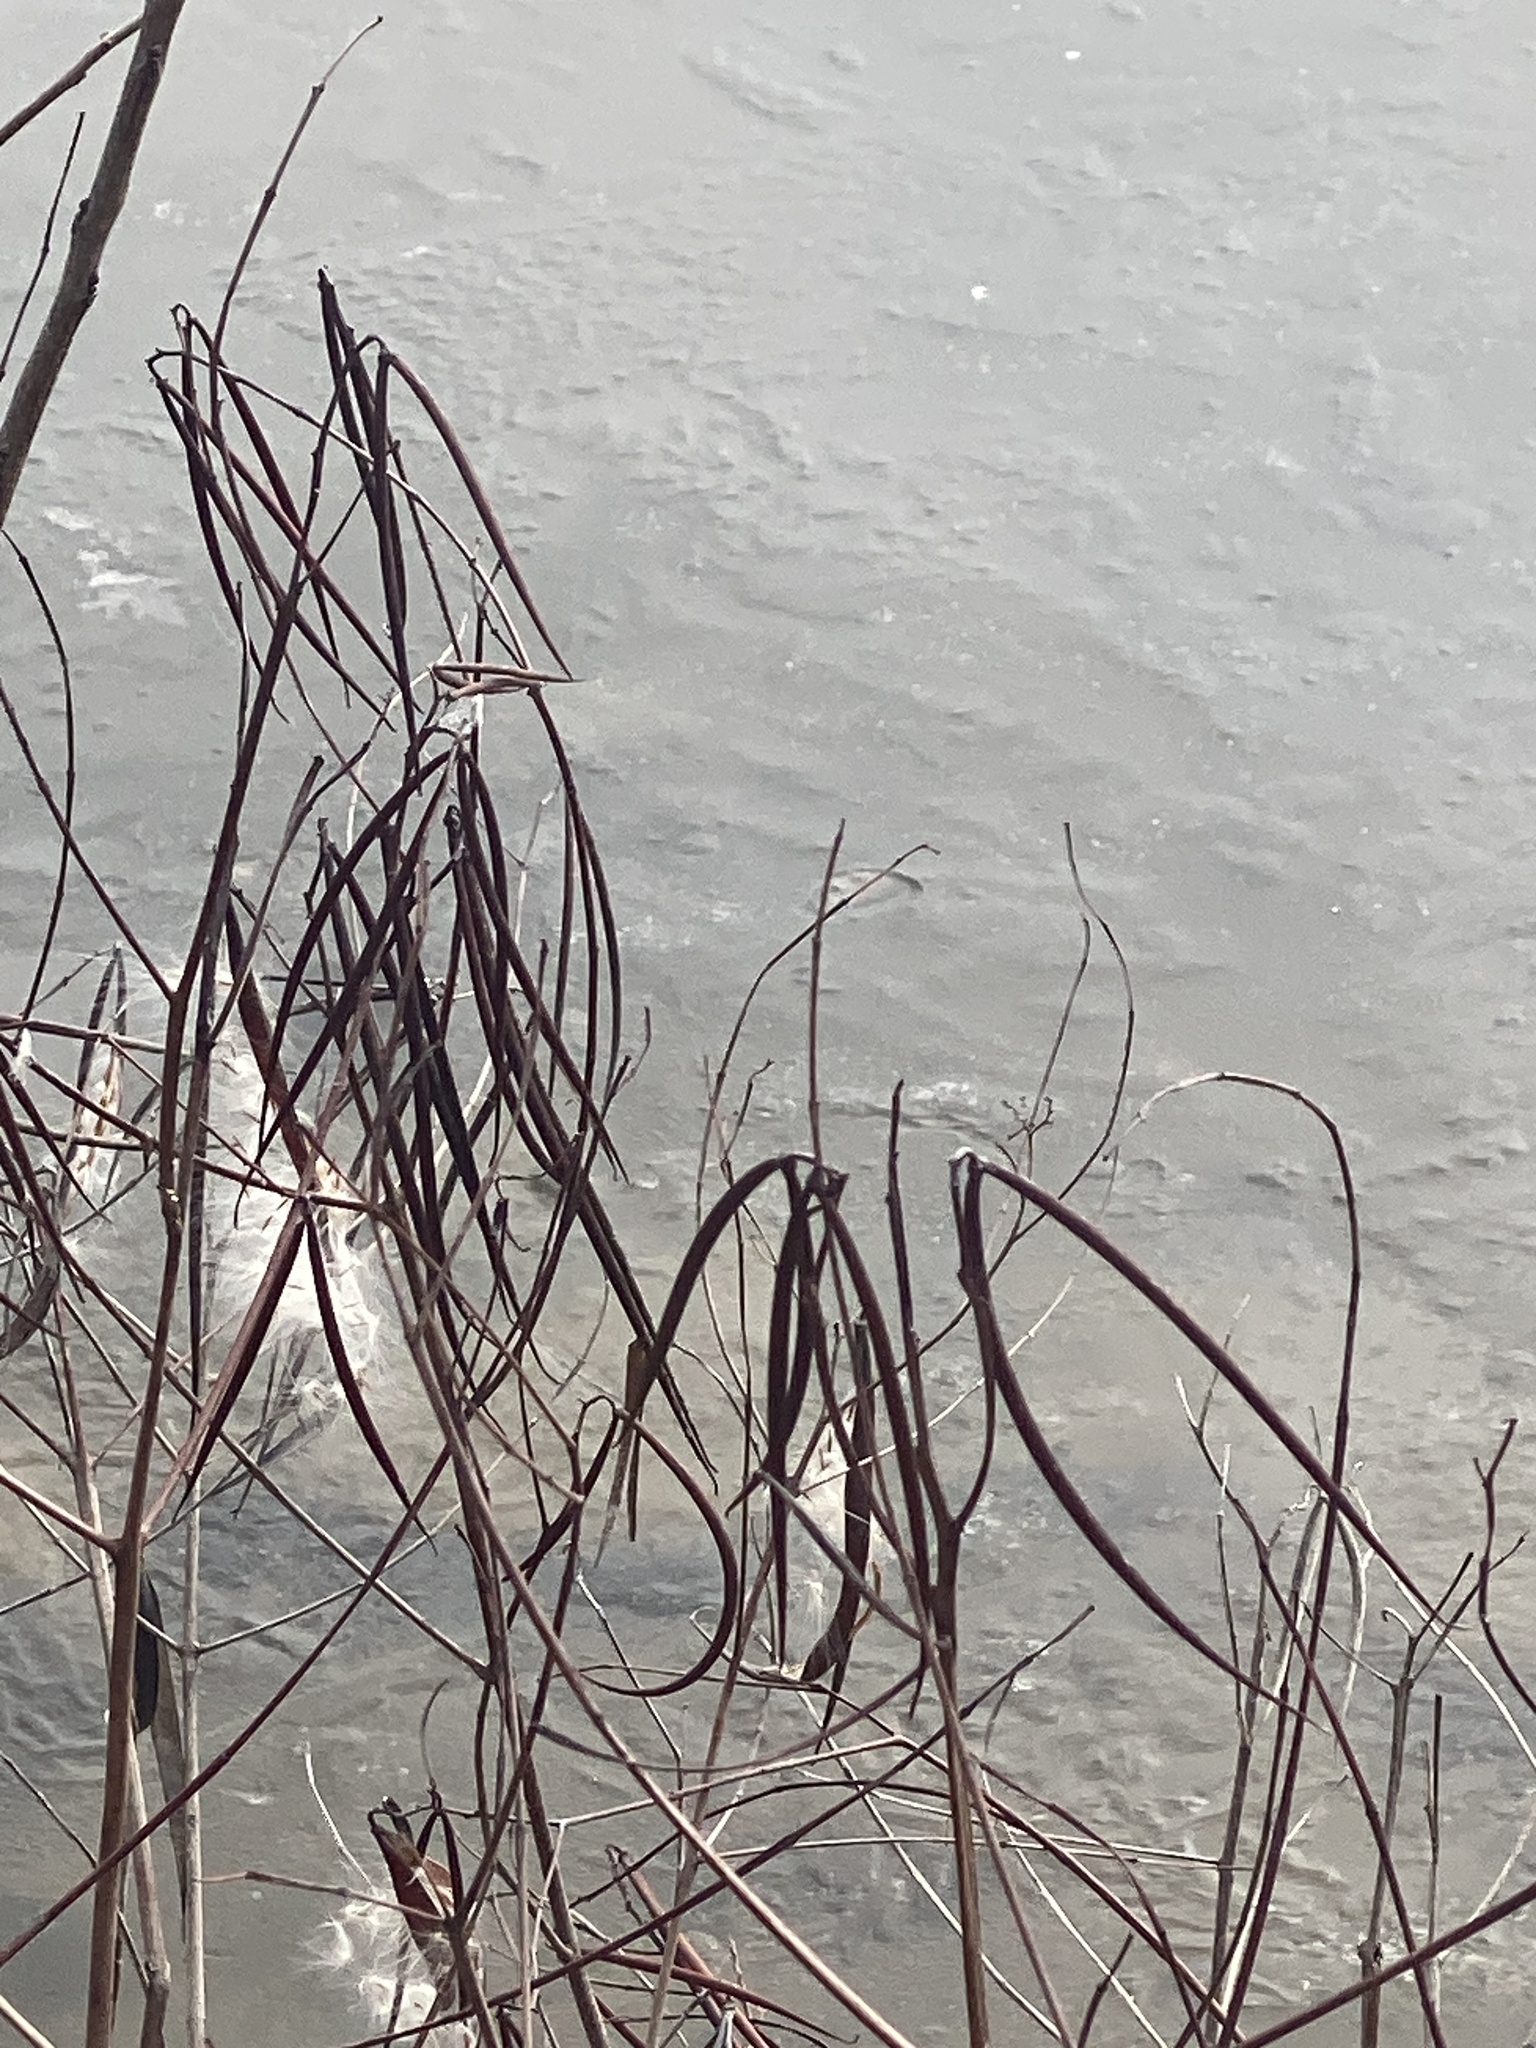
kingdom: Plantae
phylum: Tracheophyta
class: Magnoliopsida
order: Gentianales
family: Apocynaceae
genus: Apocynum
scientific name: Apocynum cannabinum
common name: Hemp dogbane
